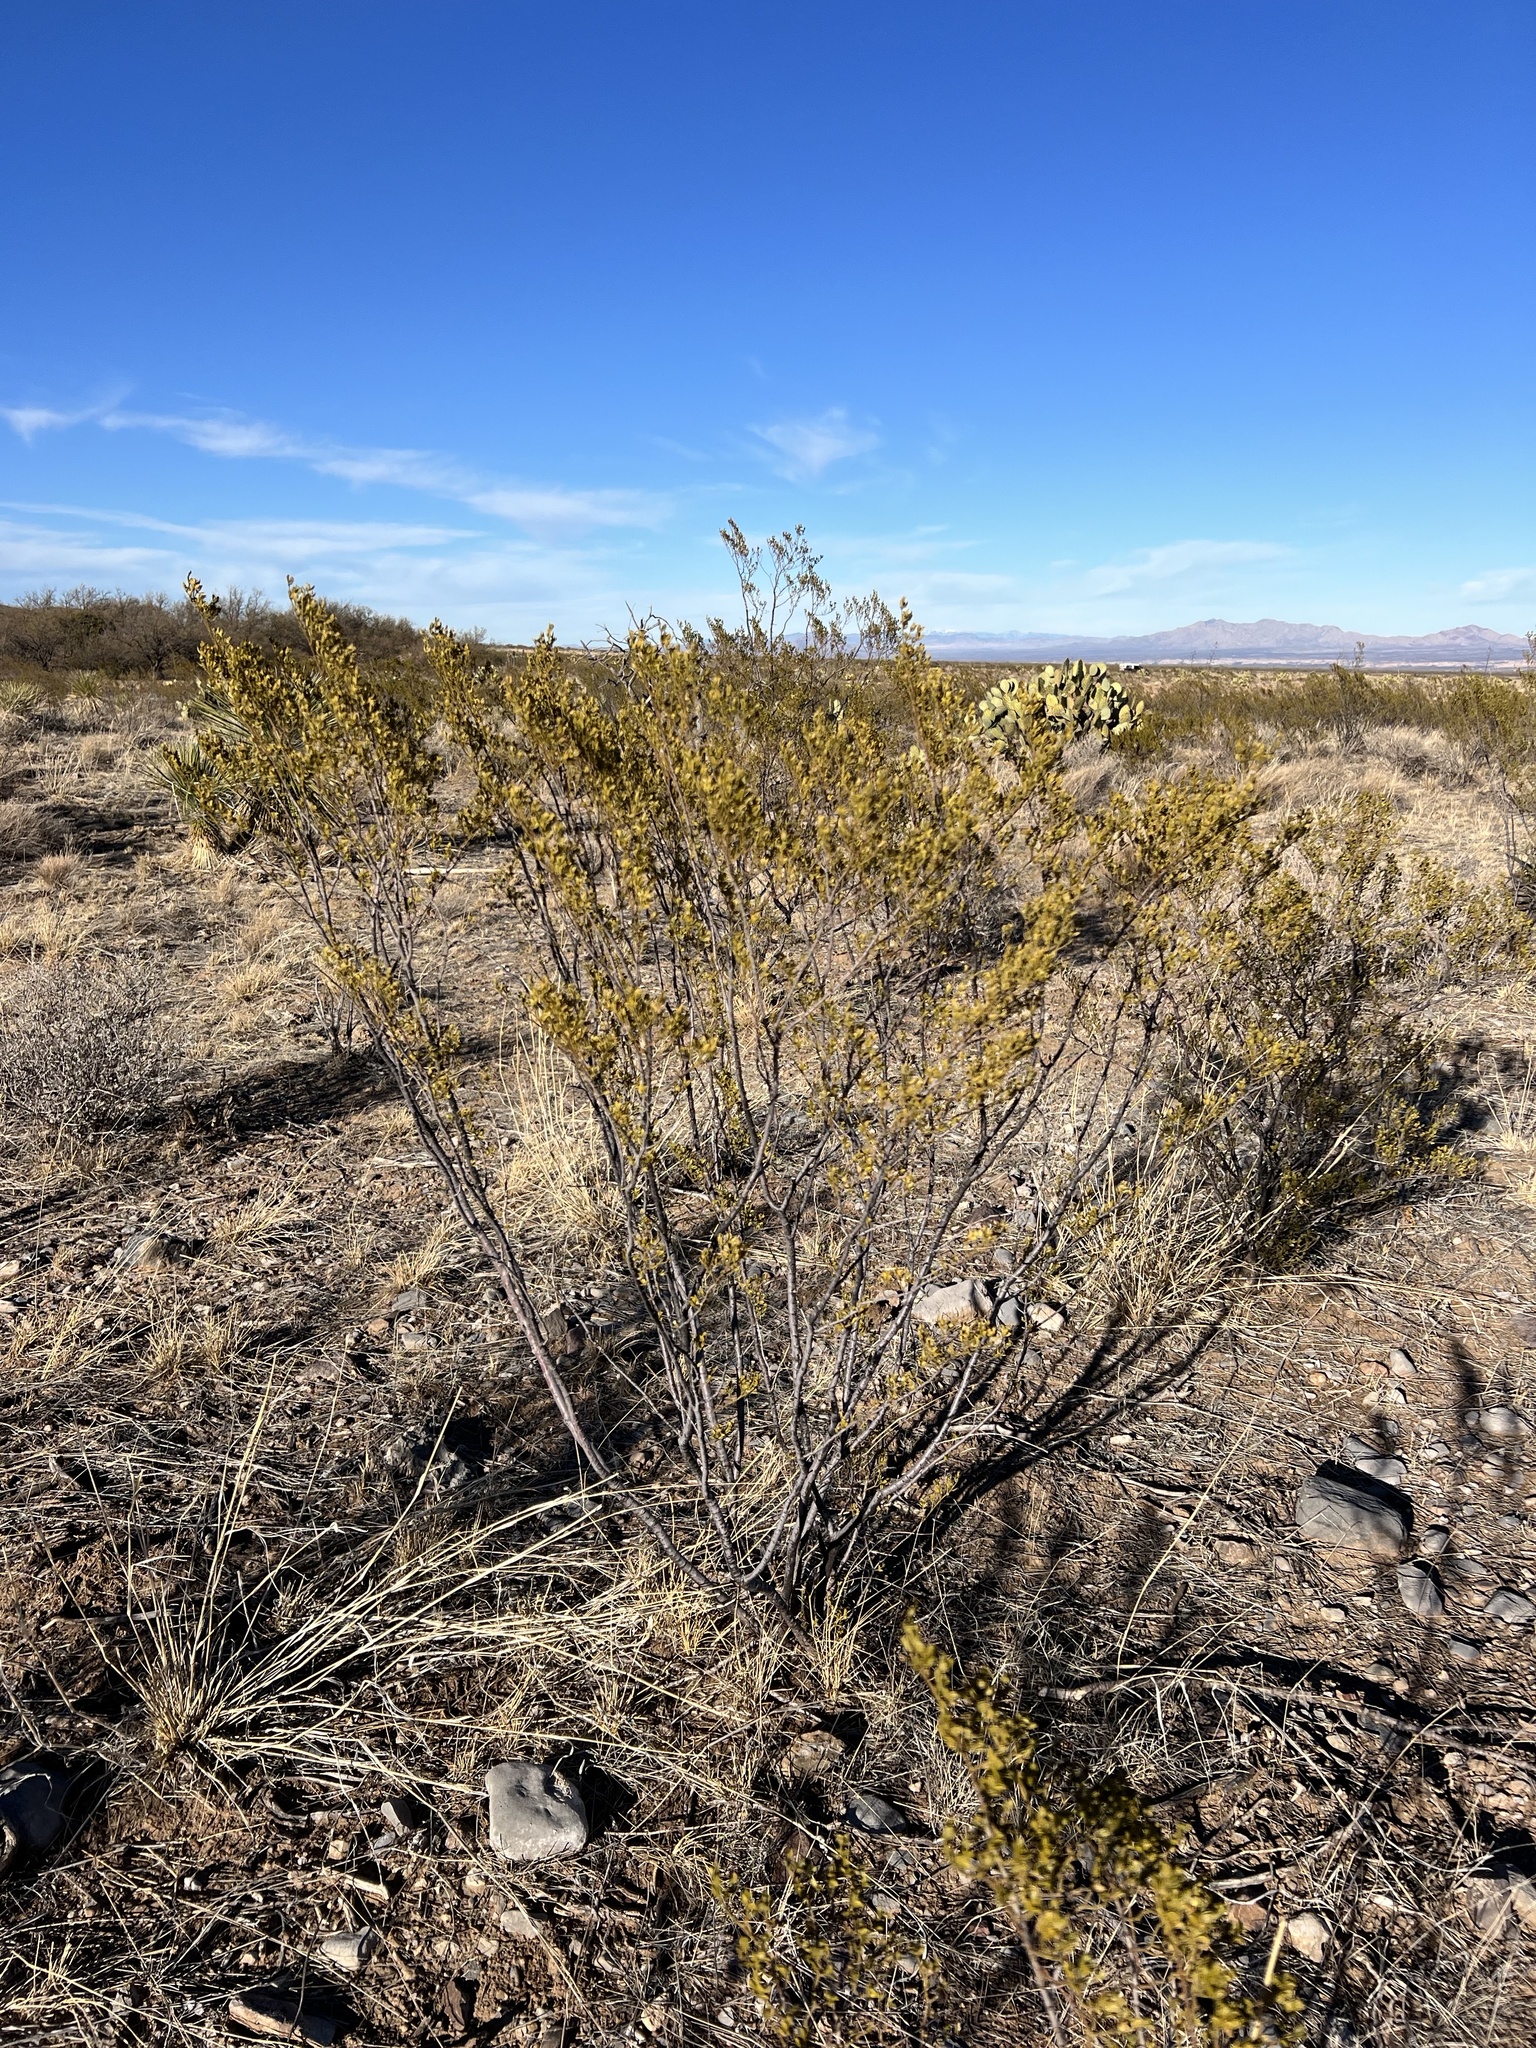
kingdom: Plantae
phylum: Tracheophyta
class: Magnoliopsida
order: Zygophyllales
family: Zygophyllaceae
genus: Larrea
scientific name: Larrea tridentata
